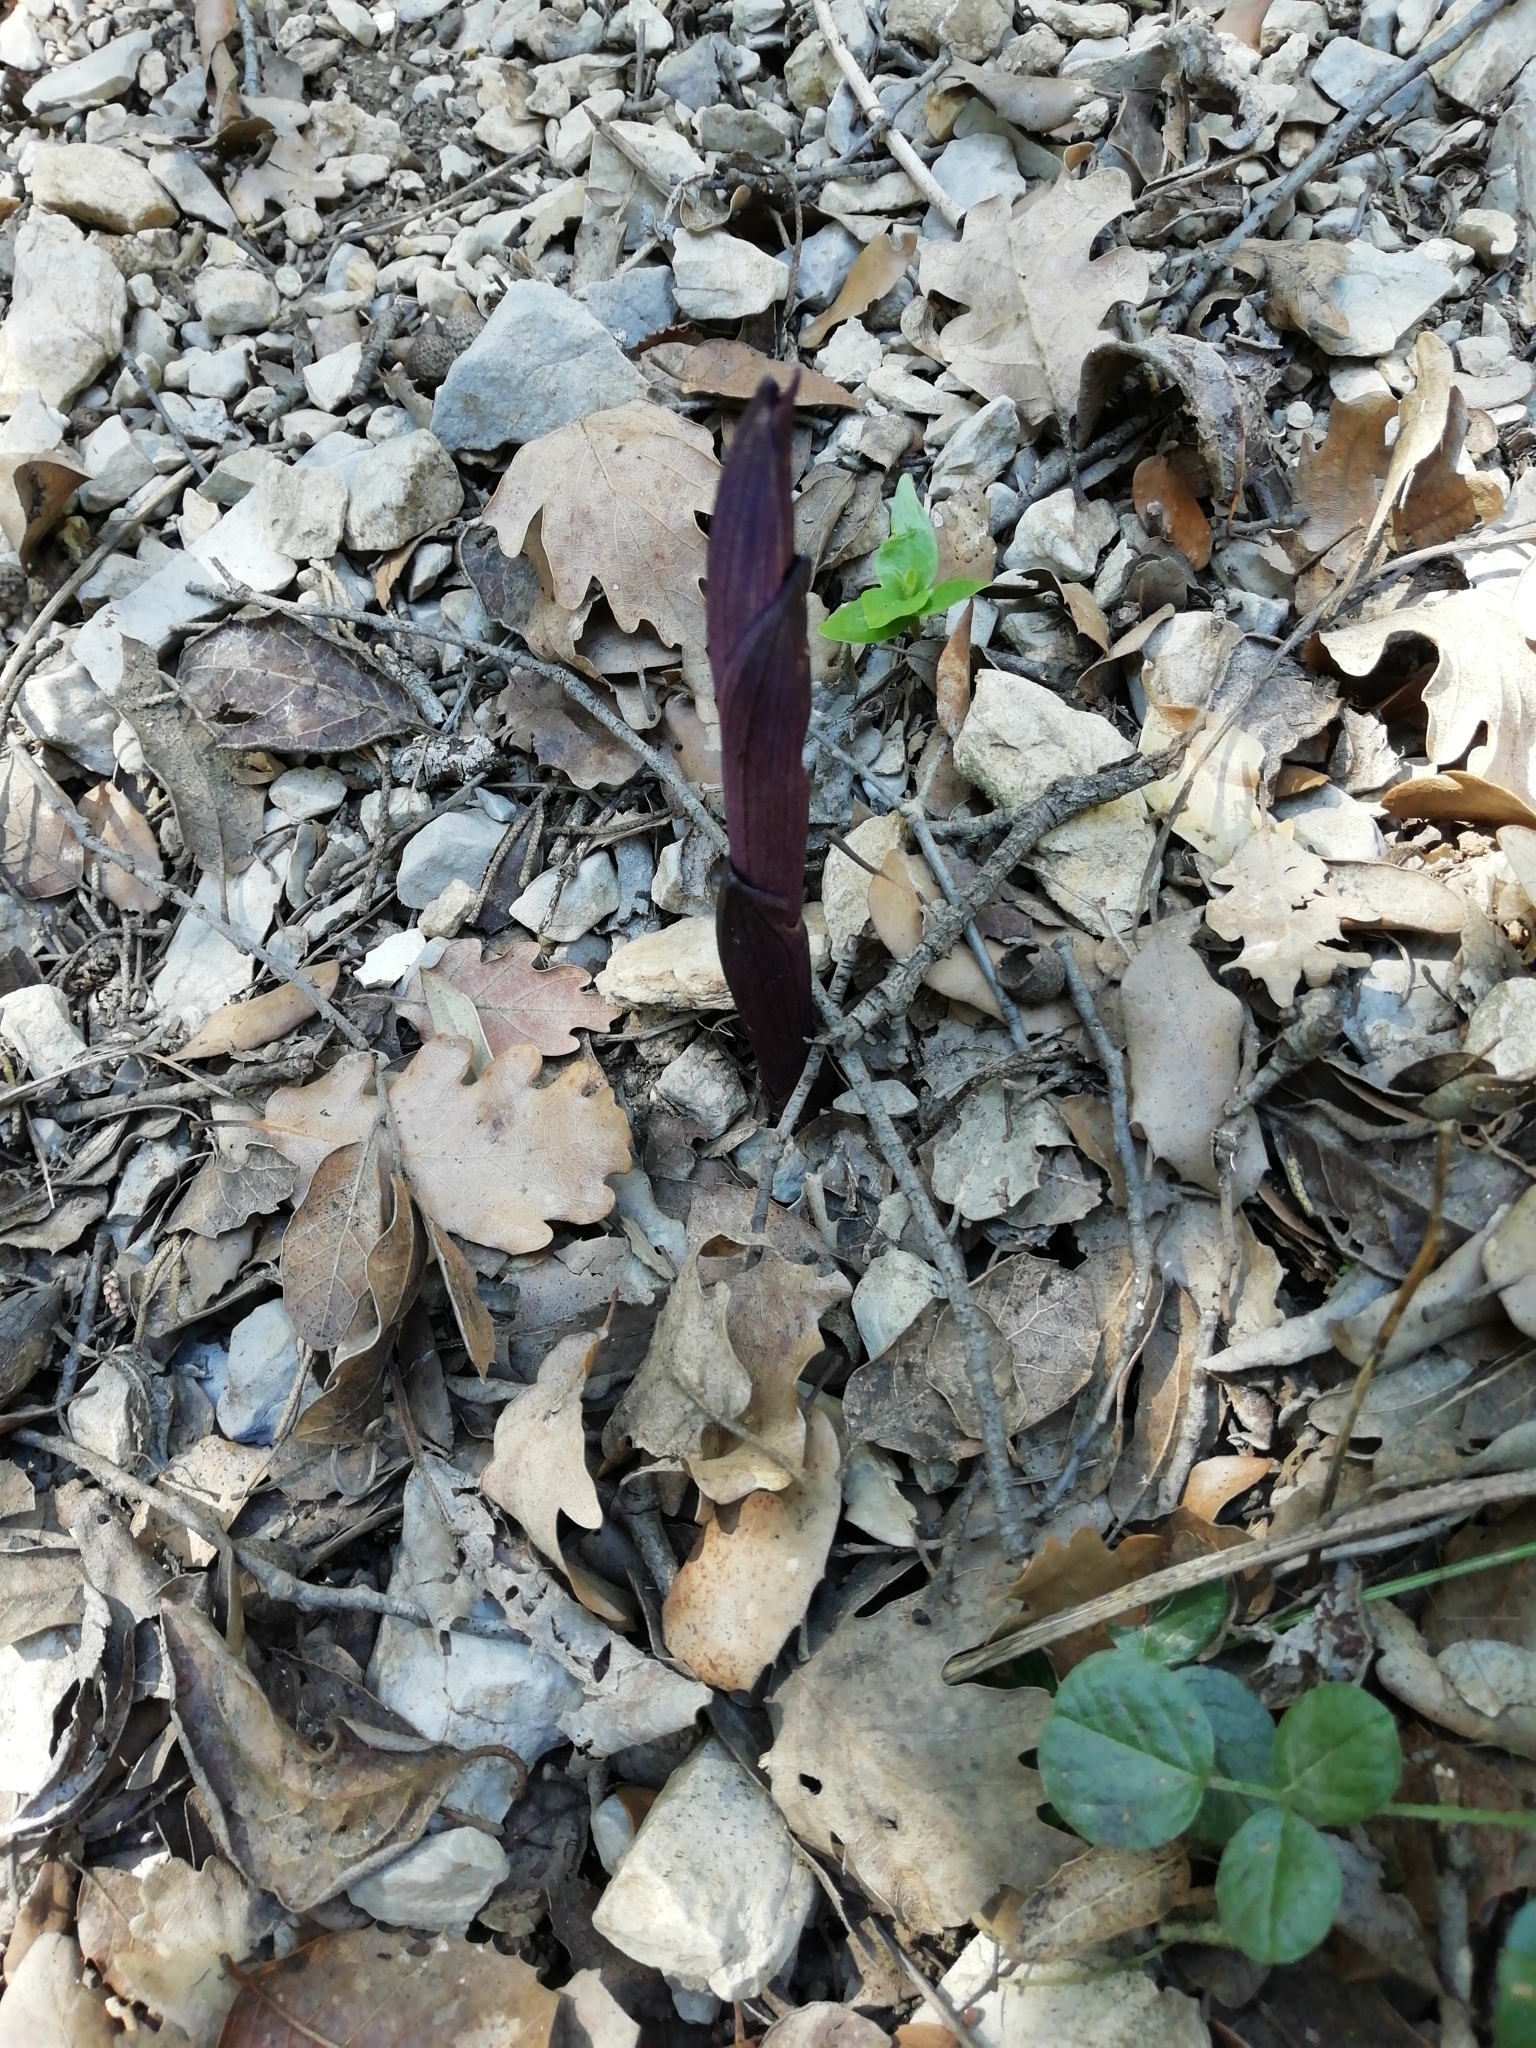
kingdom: Plantae
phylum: Tracheophyta
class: Liliopsida
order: Asparagales
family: Orchidaceae
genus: Limodorum
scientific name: Limodorum abortivum
